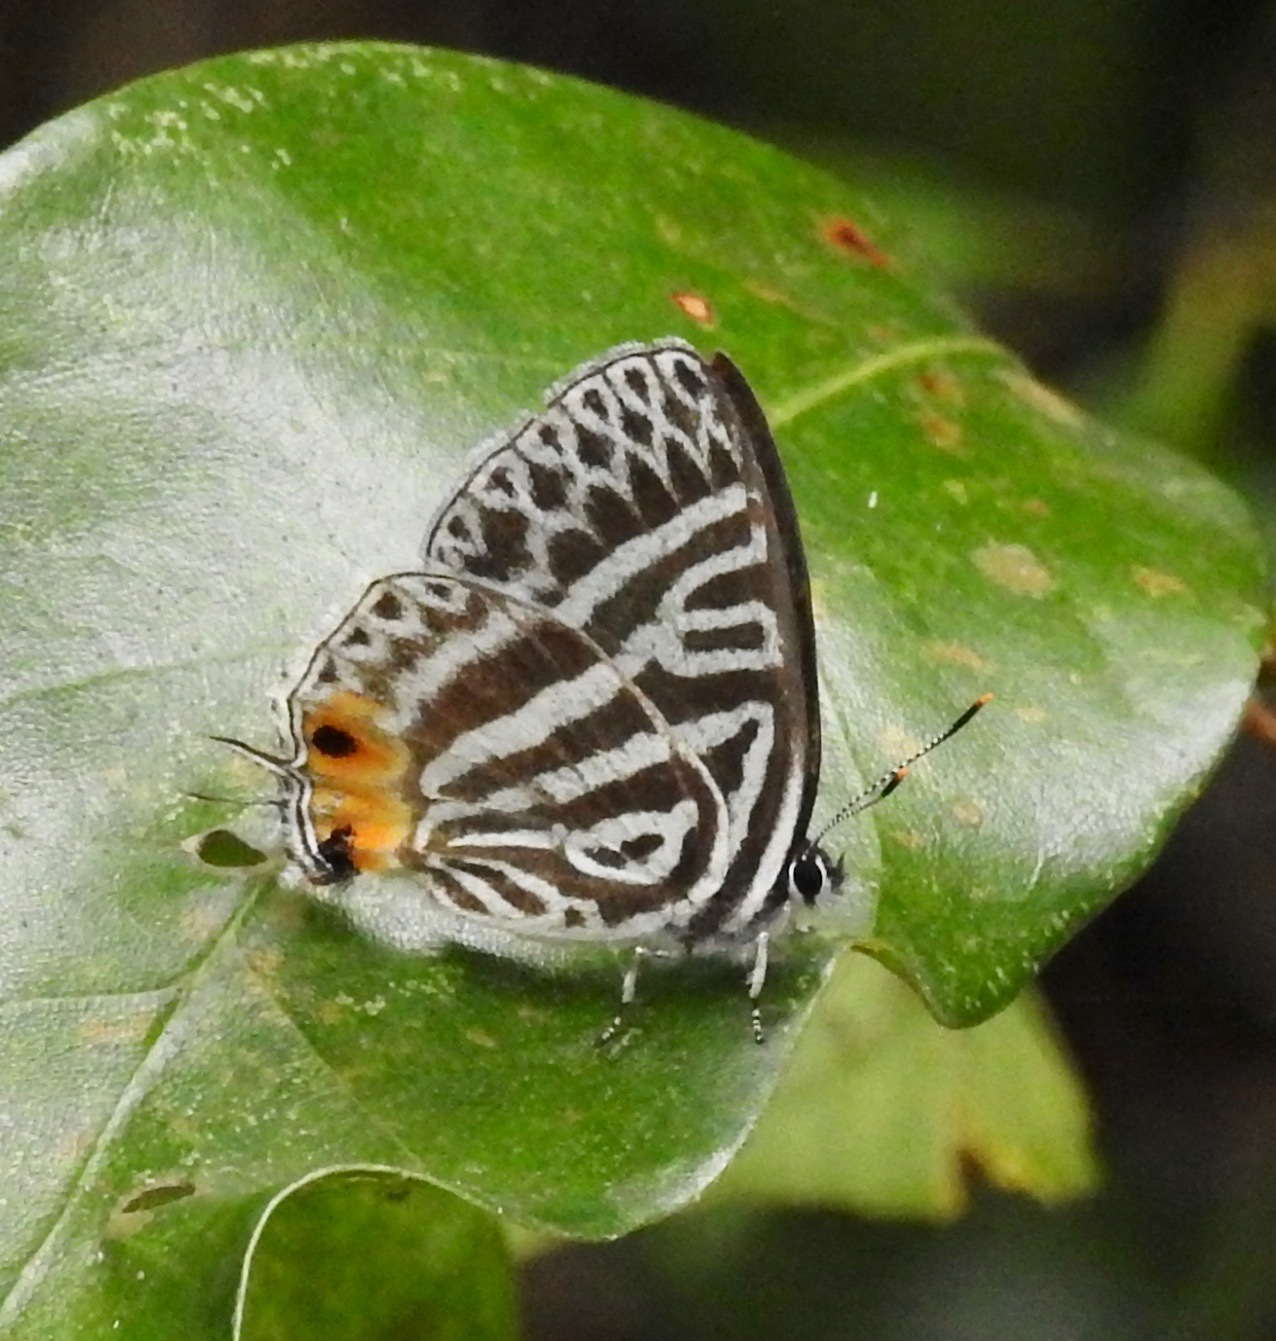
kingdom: Animalia
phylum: Arthropoda
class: Insecta
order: Lepidoptera
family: Lycaenidae
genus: Yamamotozephyrus
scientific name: Yamamotozephyrus
